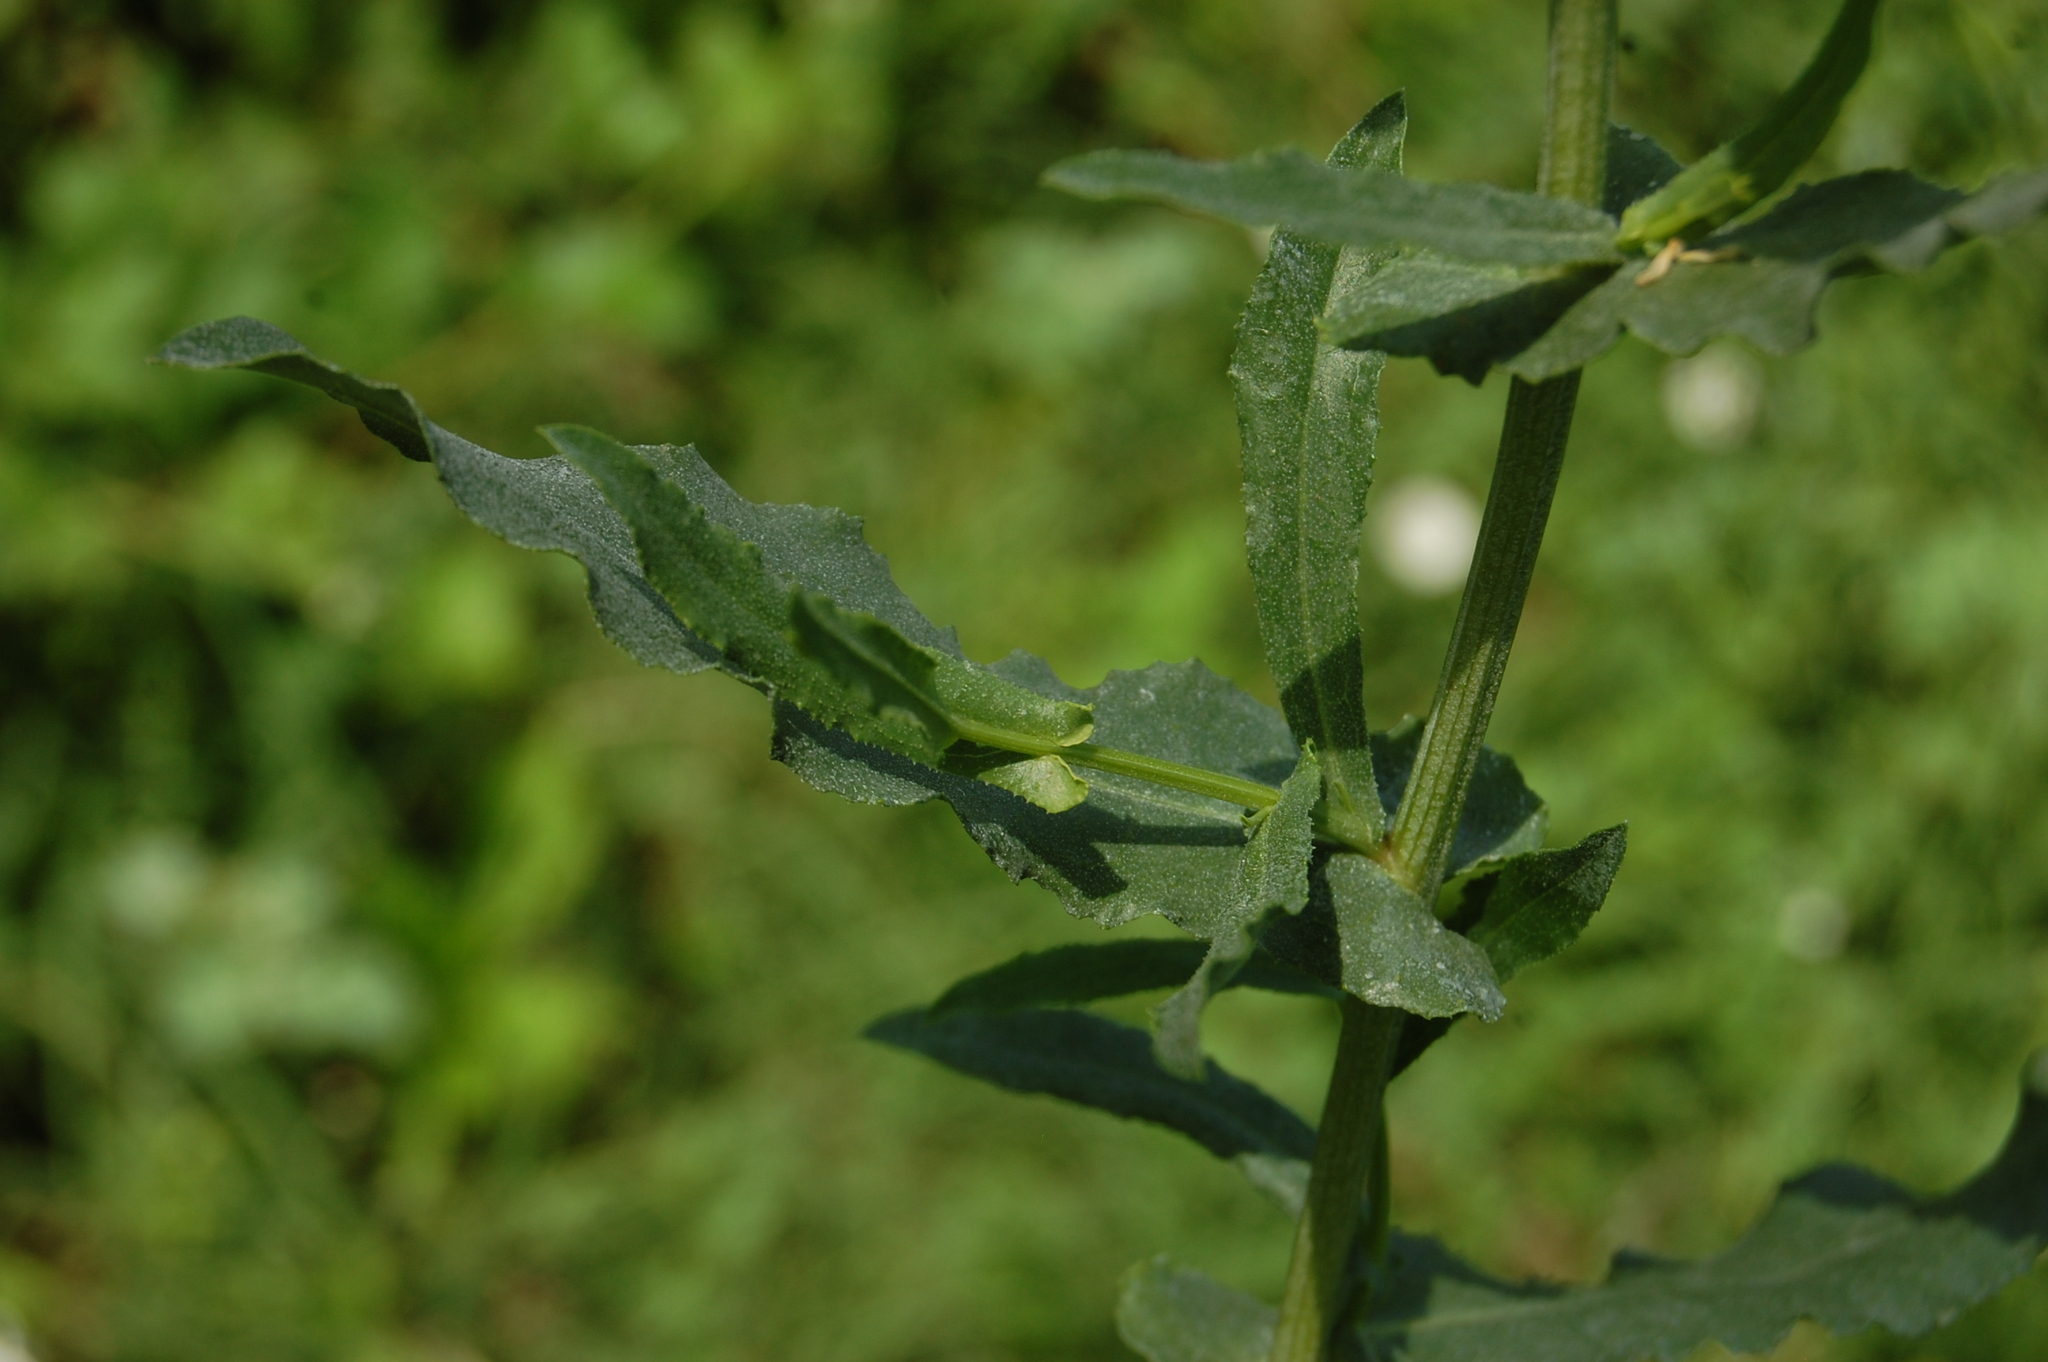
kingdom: Plantae
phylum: Tracheophyta
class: Magnoliopsida
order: Caryophyllales
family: Plumbaginaceae
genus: Plumbago
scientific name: Plumbago europaea
